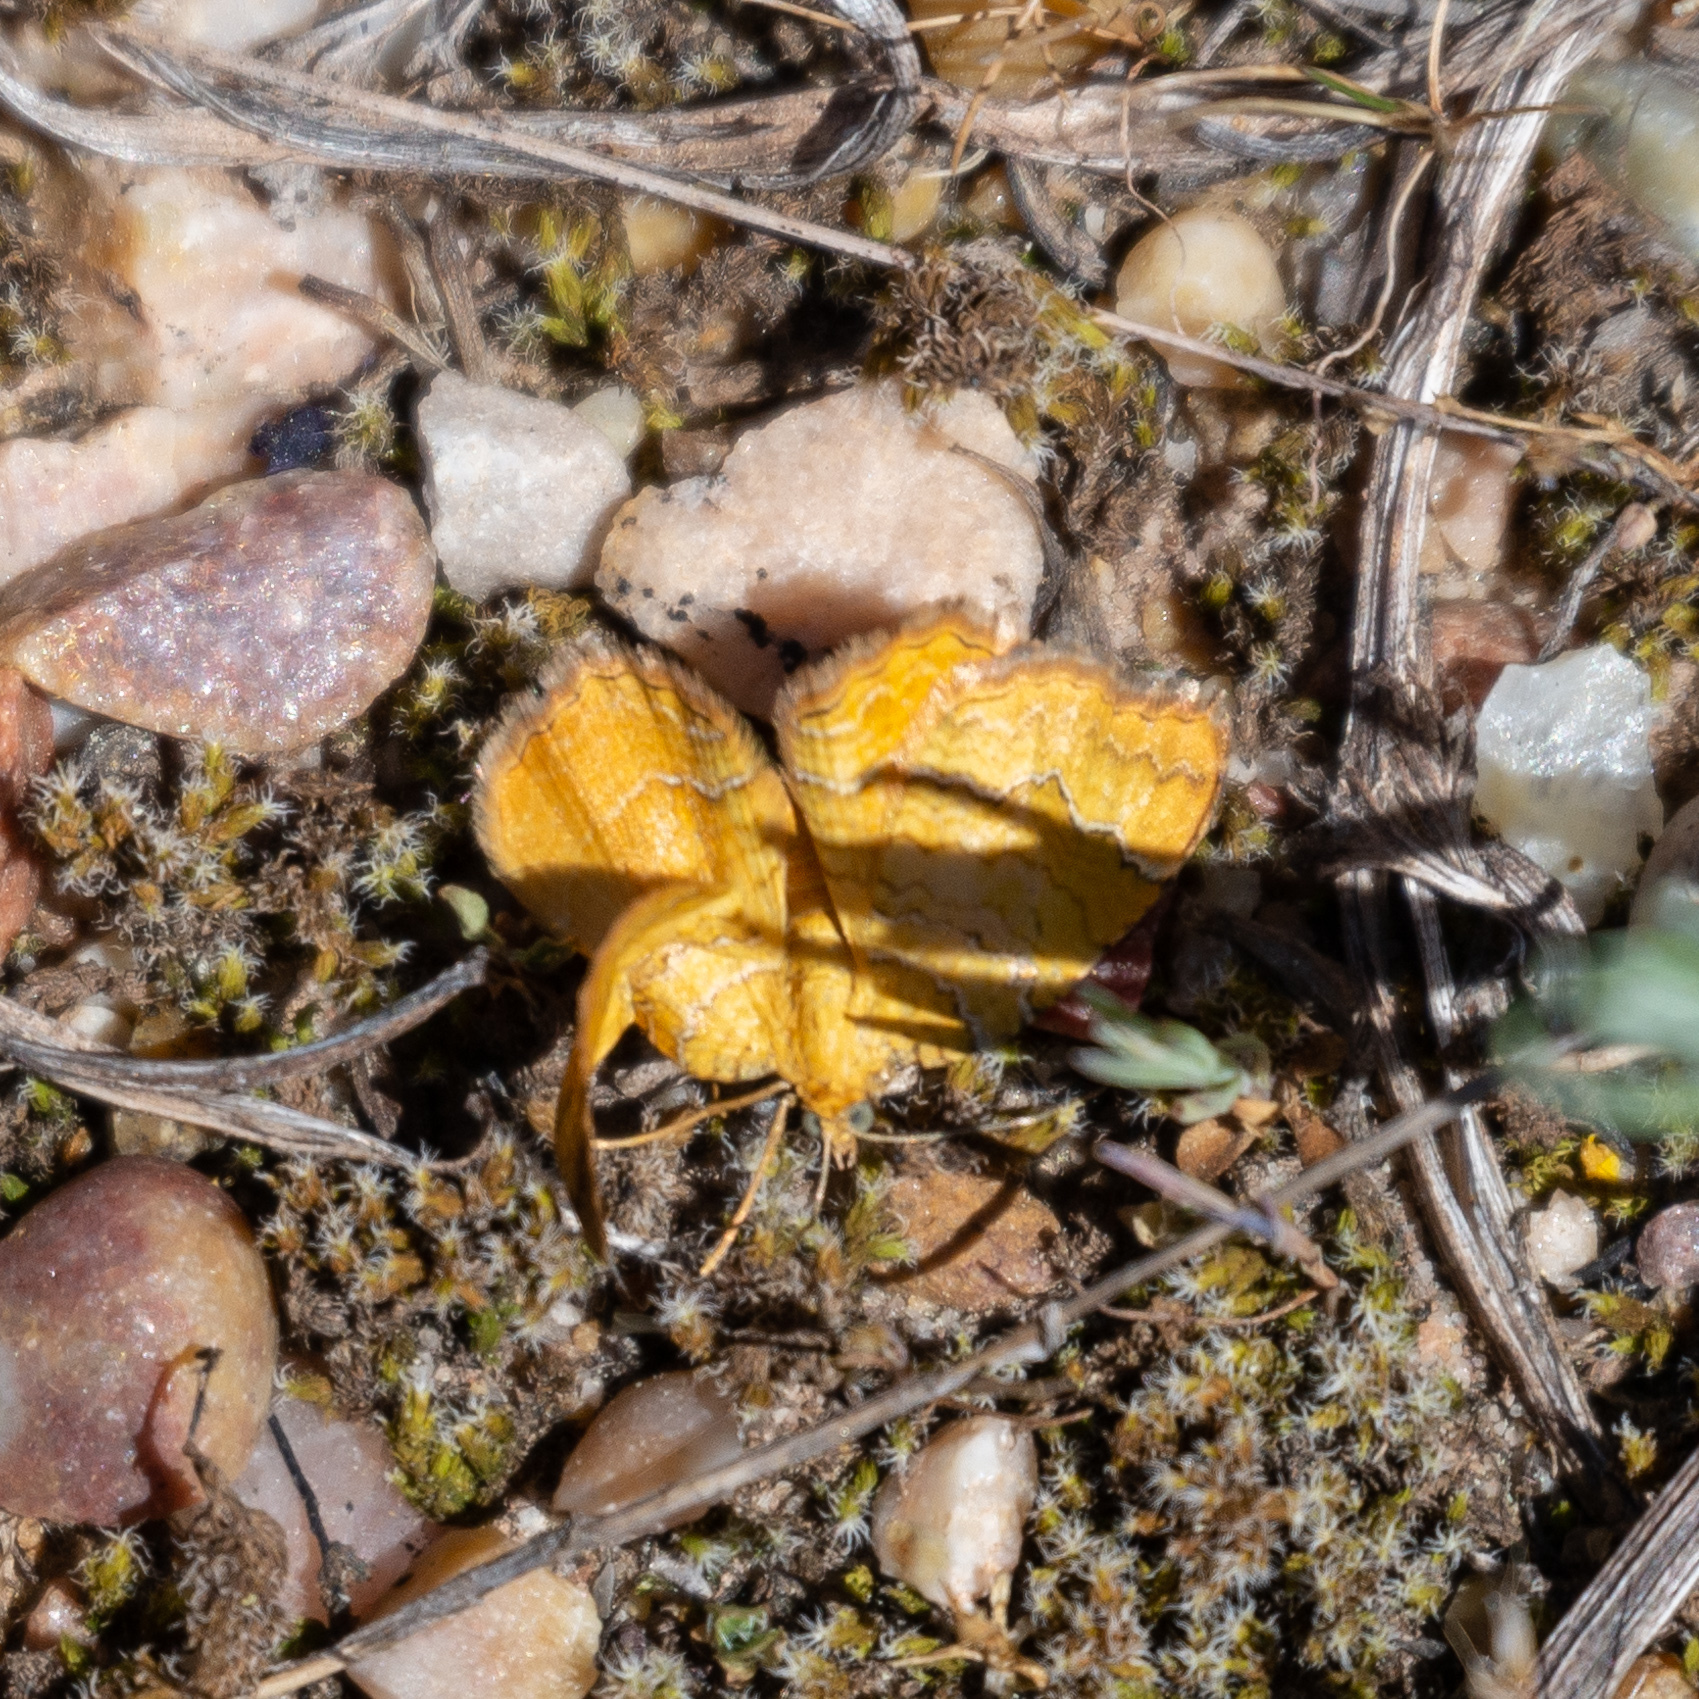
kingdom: Animalia
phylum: Arthropoda
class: Insecta
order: Lepidoptera
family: Geometridae
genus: Camptogramma
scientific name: Camptogramma bilineata
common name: Yellow shell
